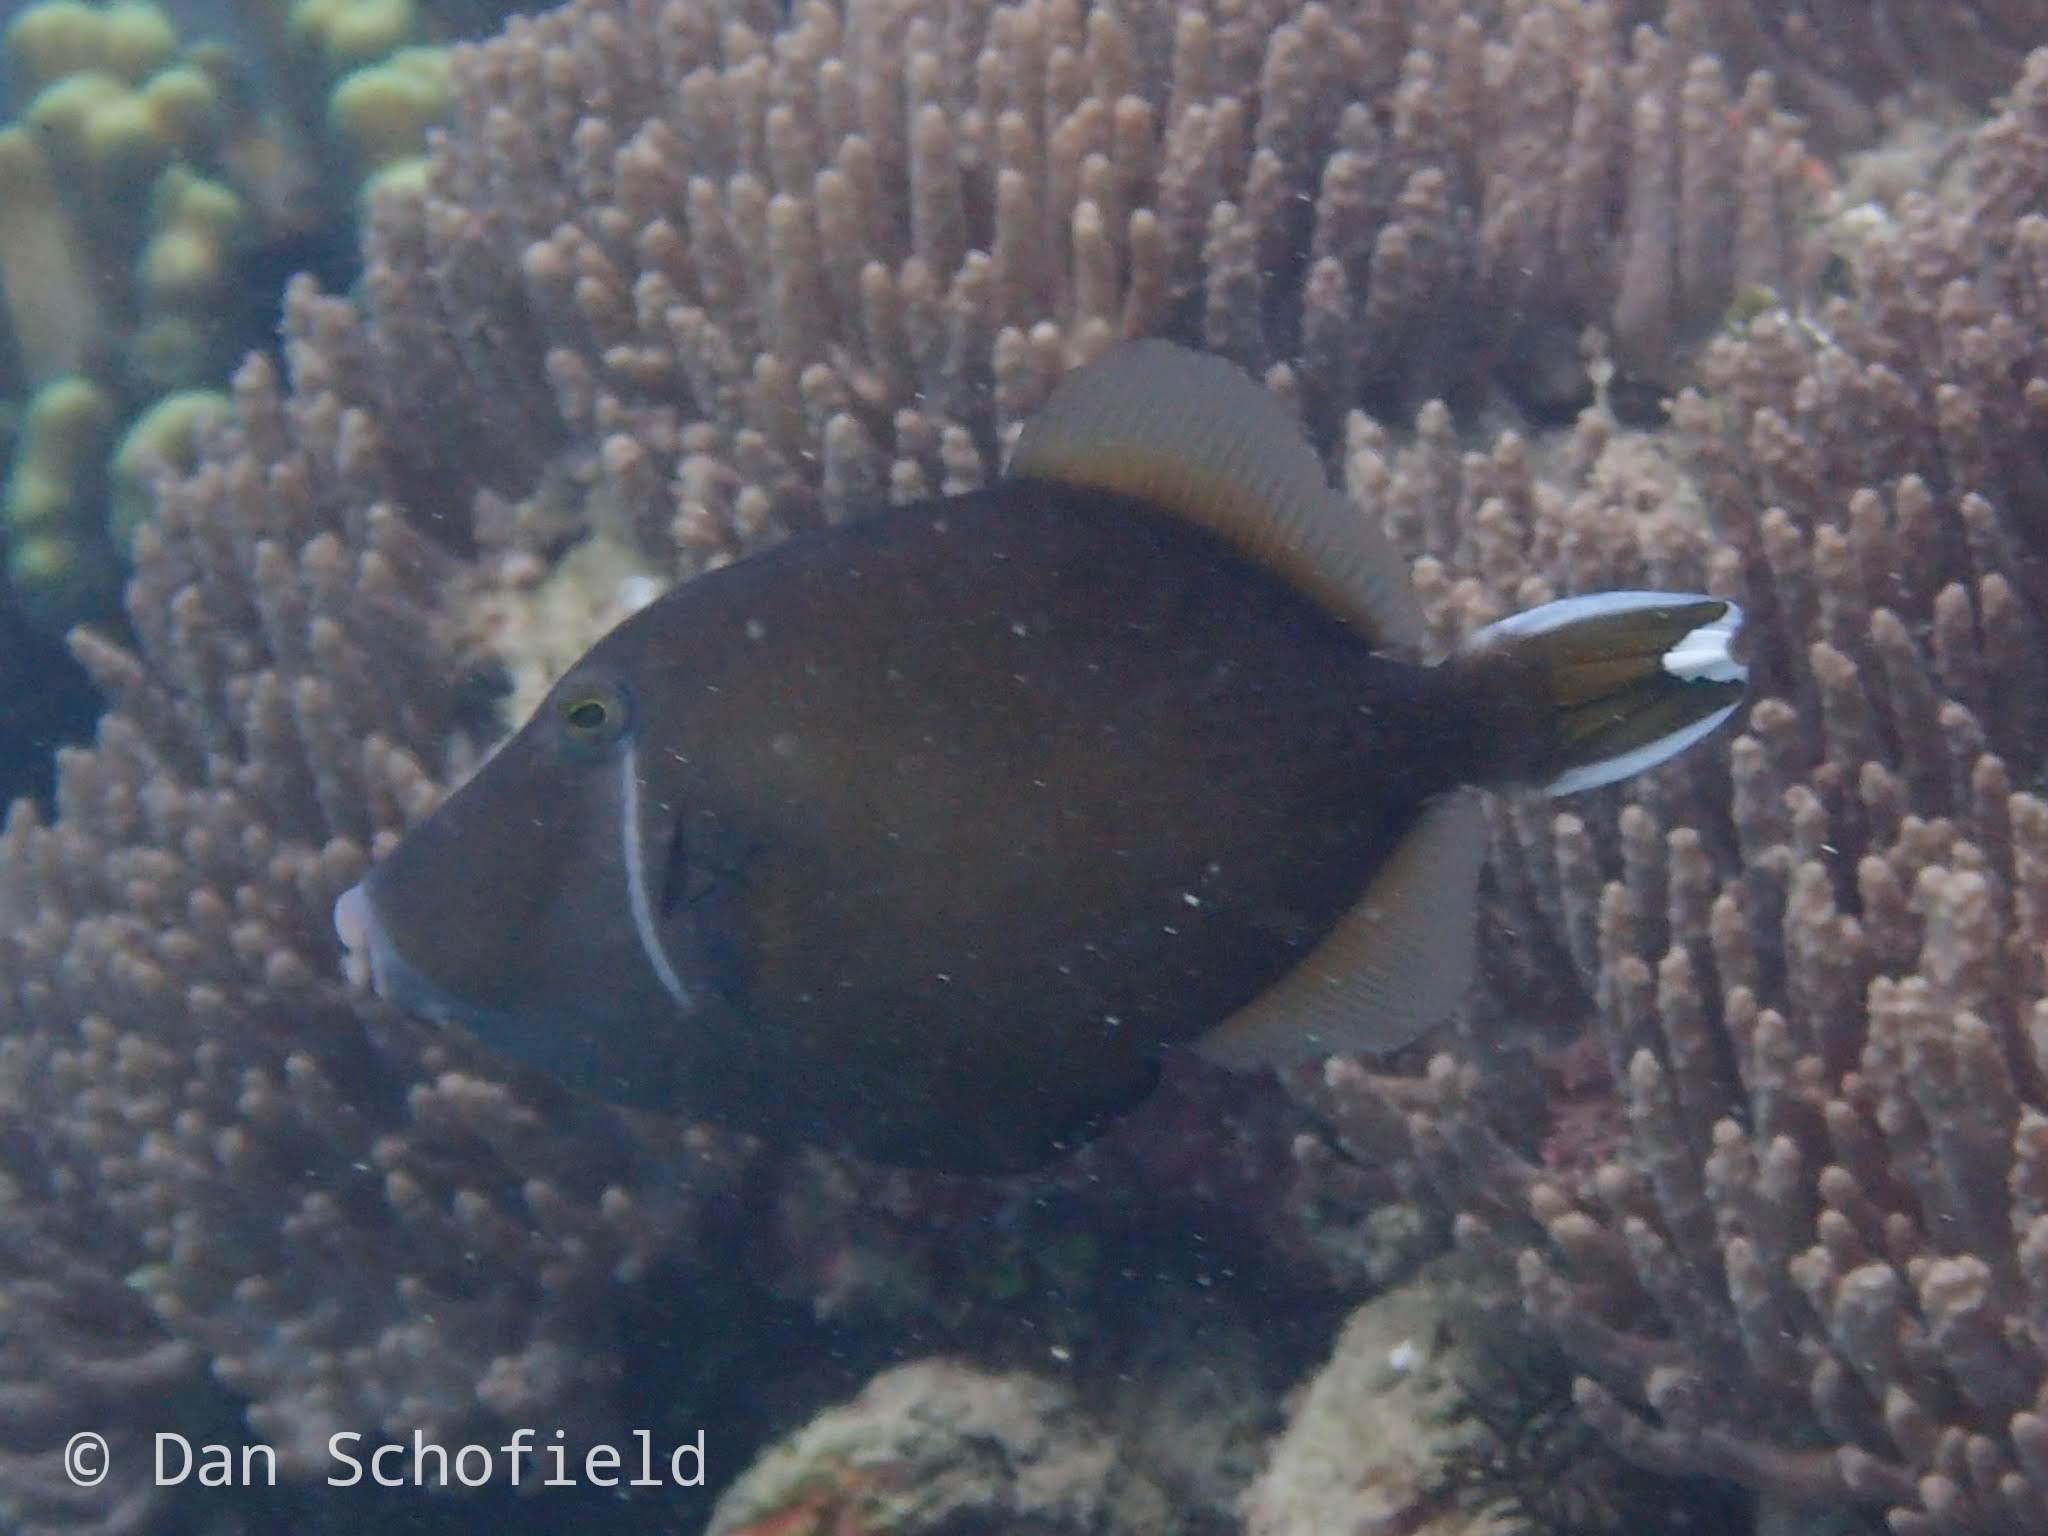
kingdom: Animalia
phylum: Chordata
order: Tetraodontiformes
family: Balistidae
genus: Sufflamen
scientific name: Sufflamen chrysopterum
